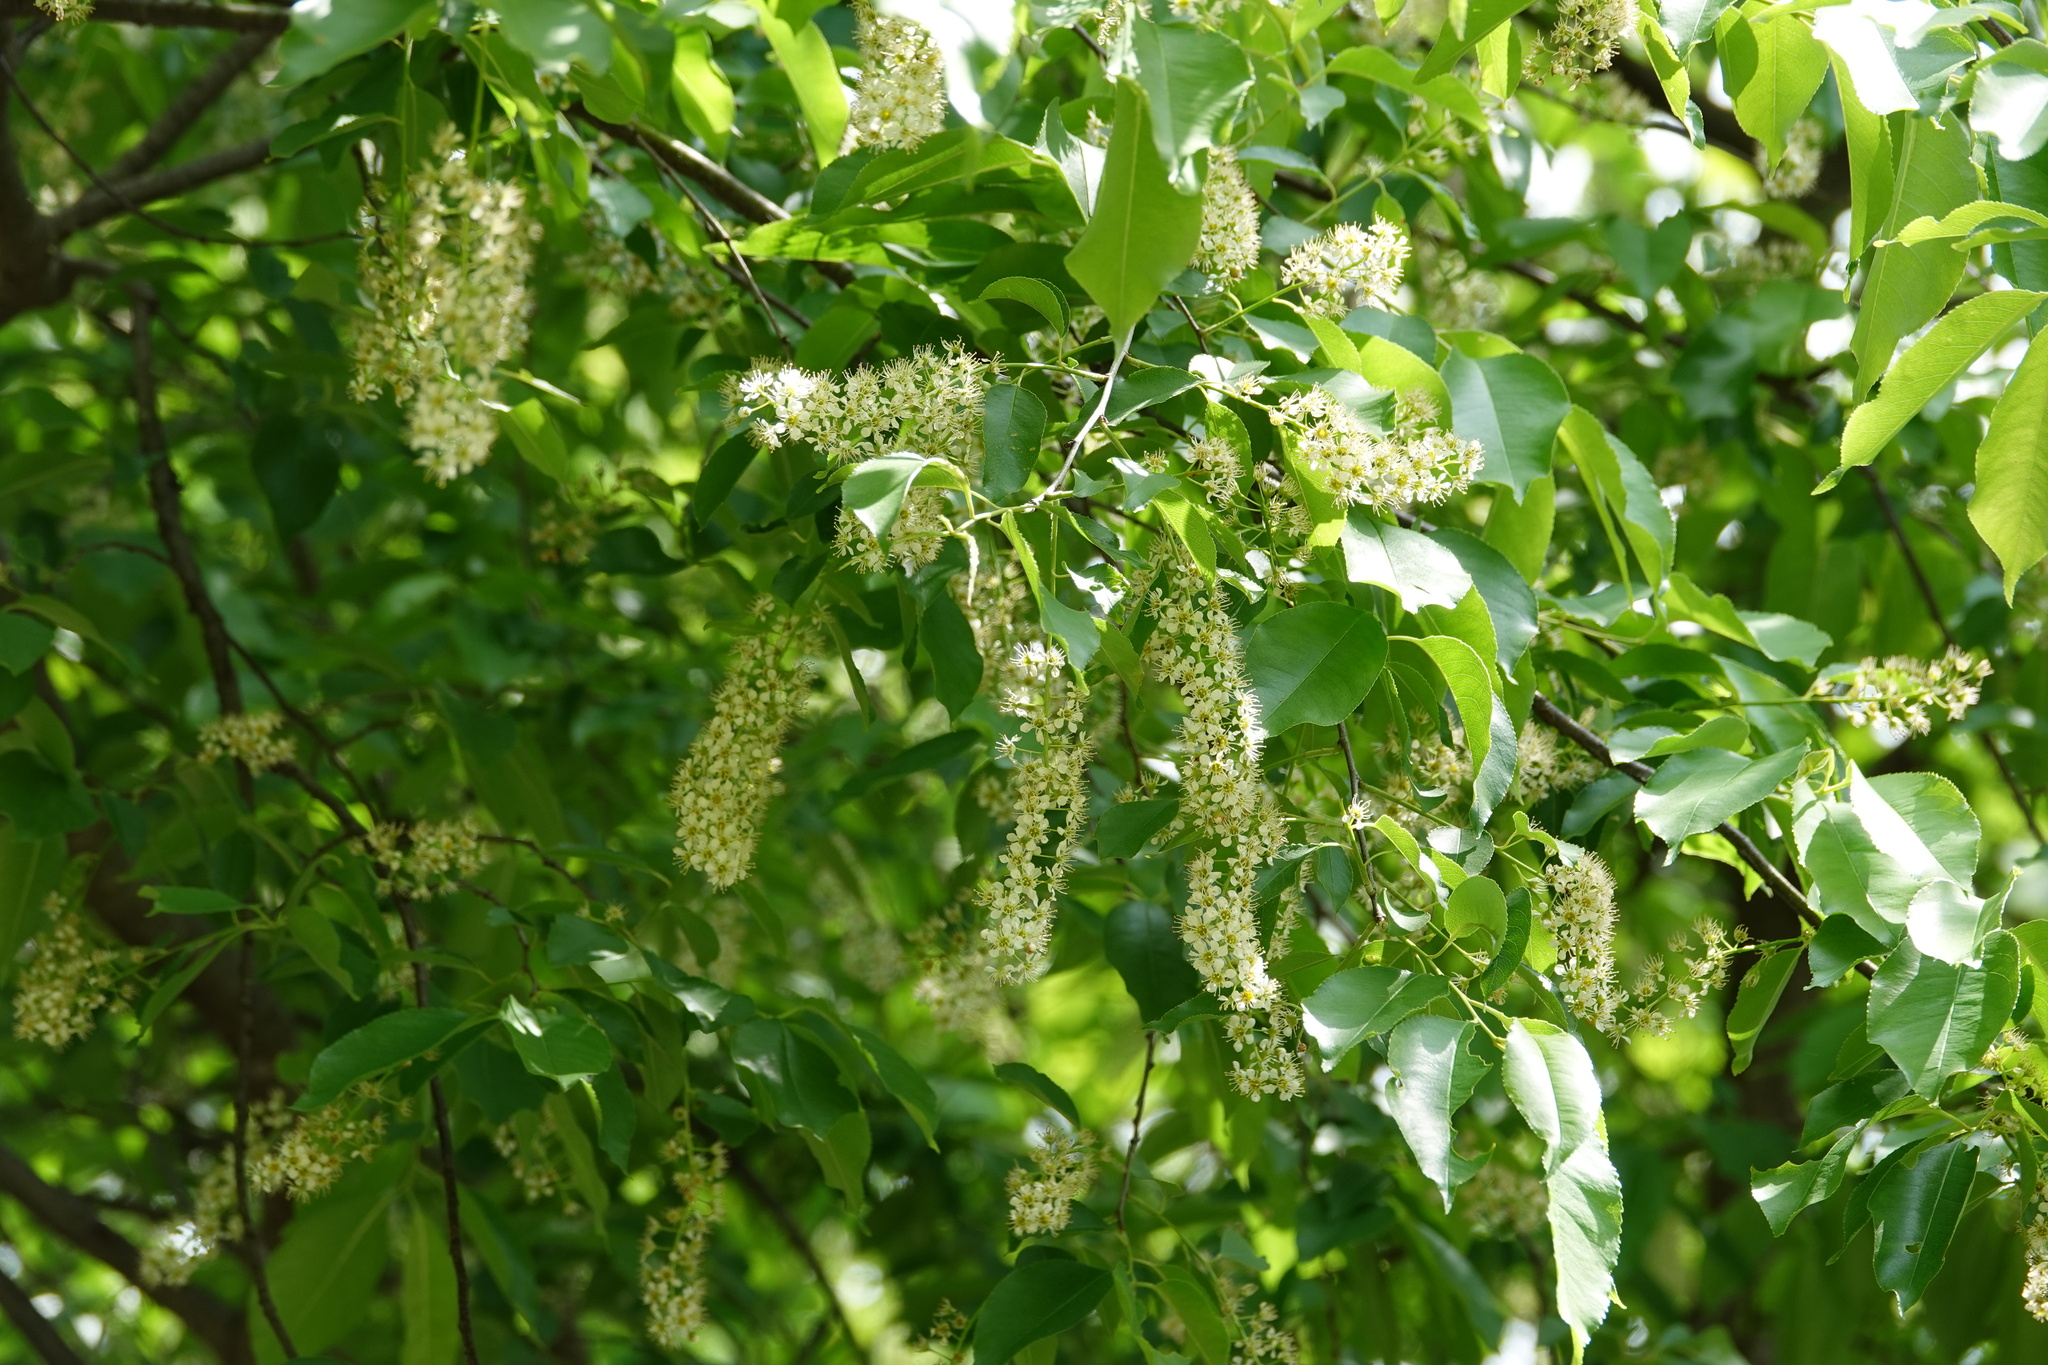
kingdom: Plantae
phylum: Tracheophyta
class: Magnoliopsida
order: Rosales
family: Rosaceae
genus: Prunus
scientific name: Prunus serotina
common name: Black cherry
